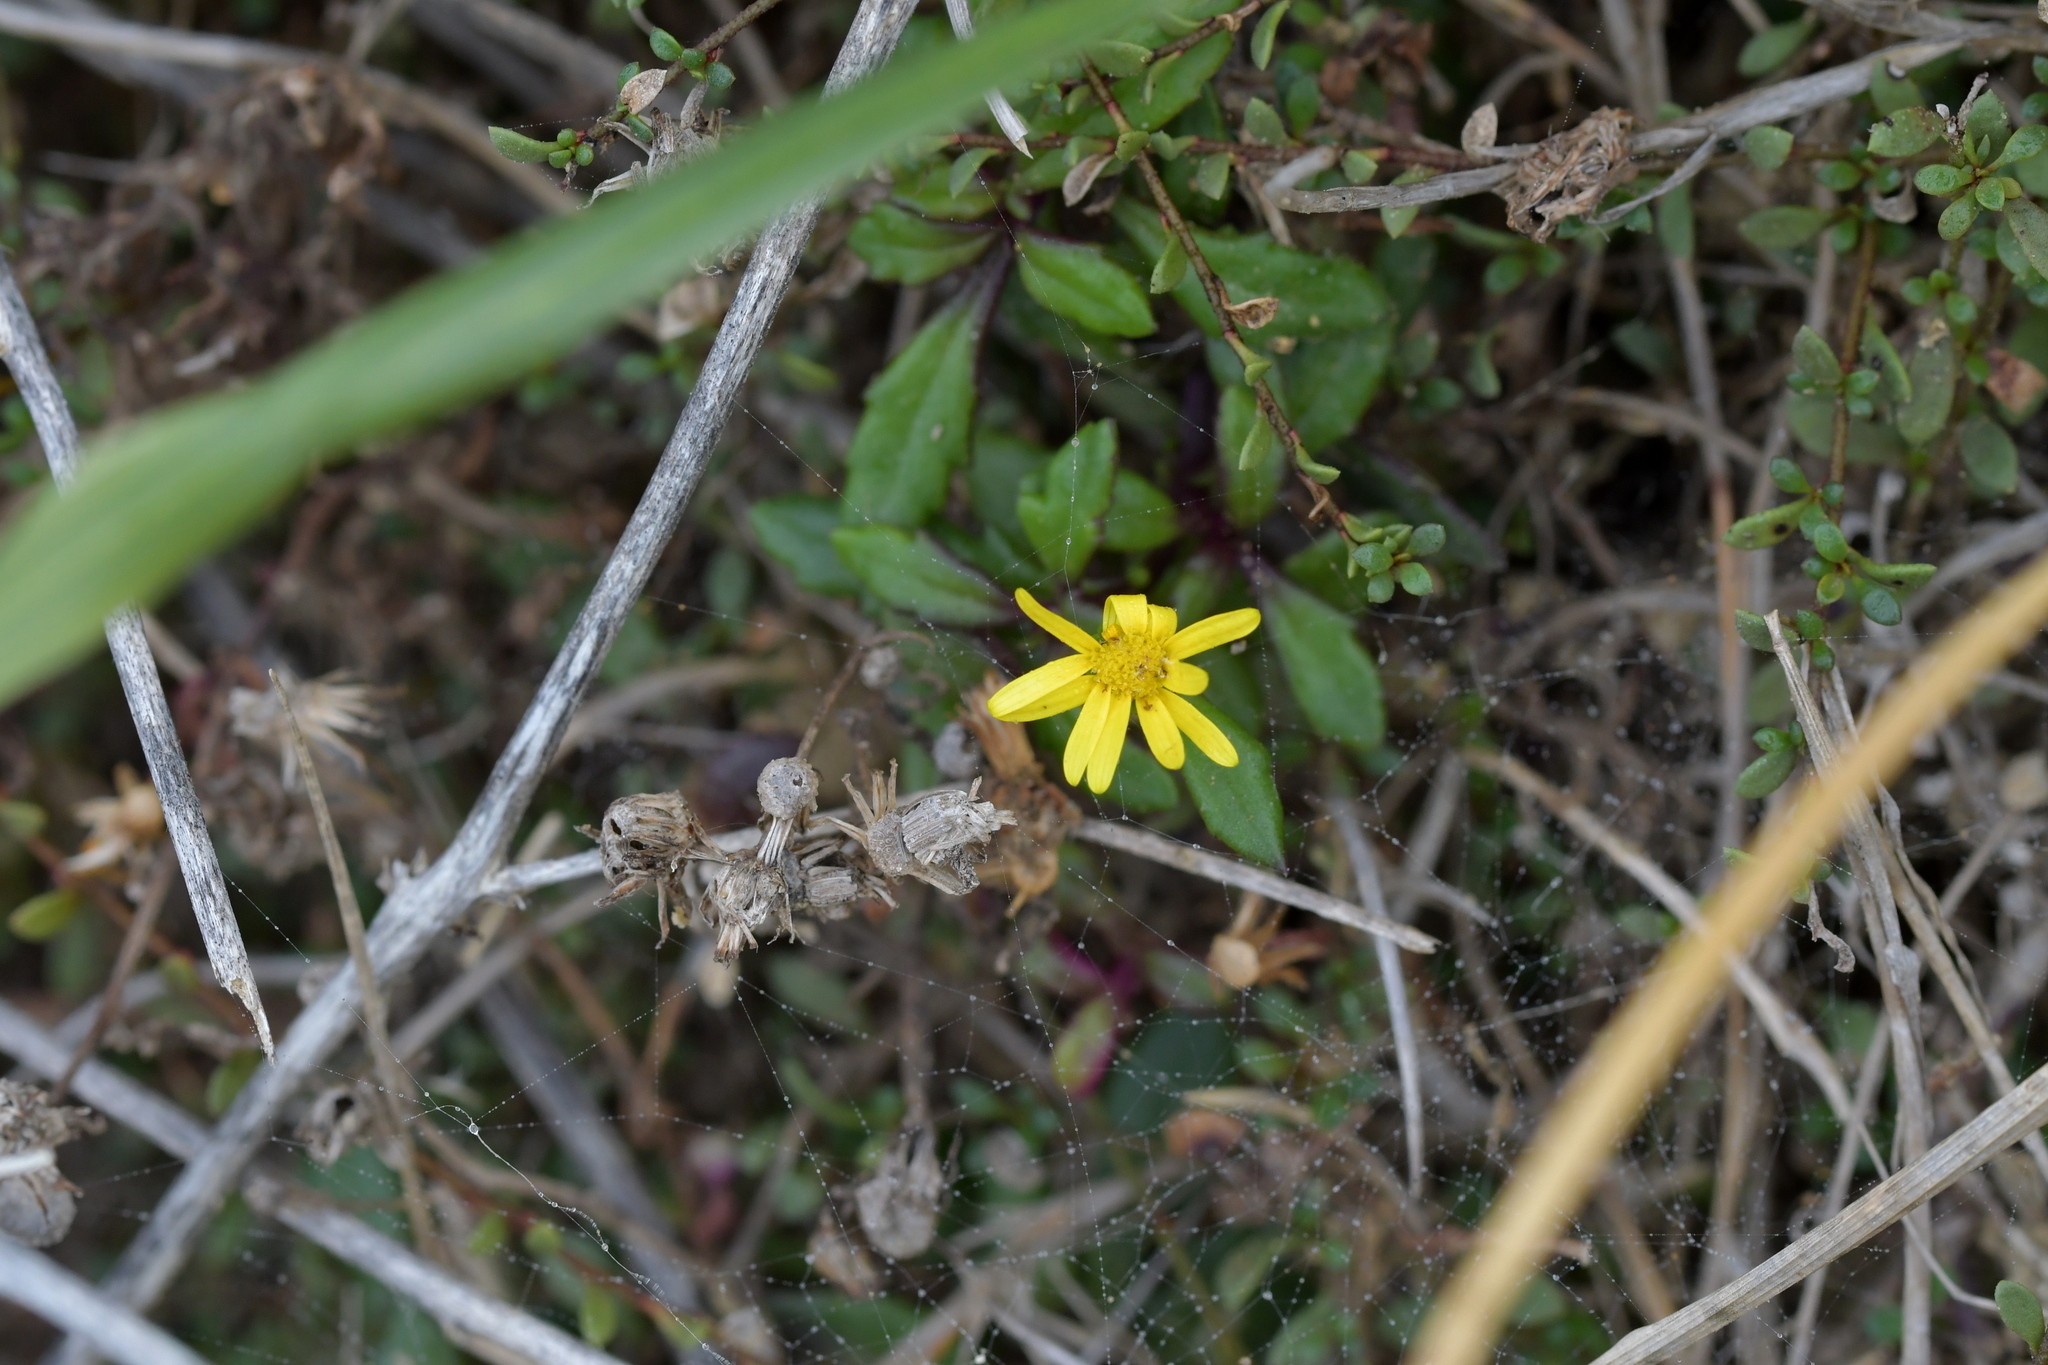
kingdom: Plantae
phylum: Tracheophyta
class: Magnoliopsida
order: Asterales
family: Asteraceae
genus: Senecio
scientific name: Senecio lautus
